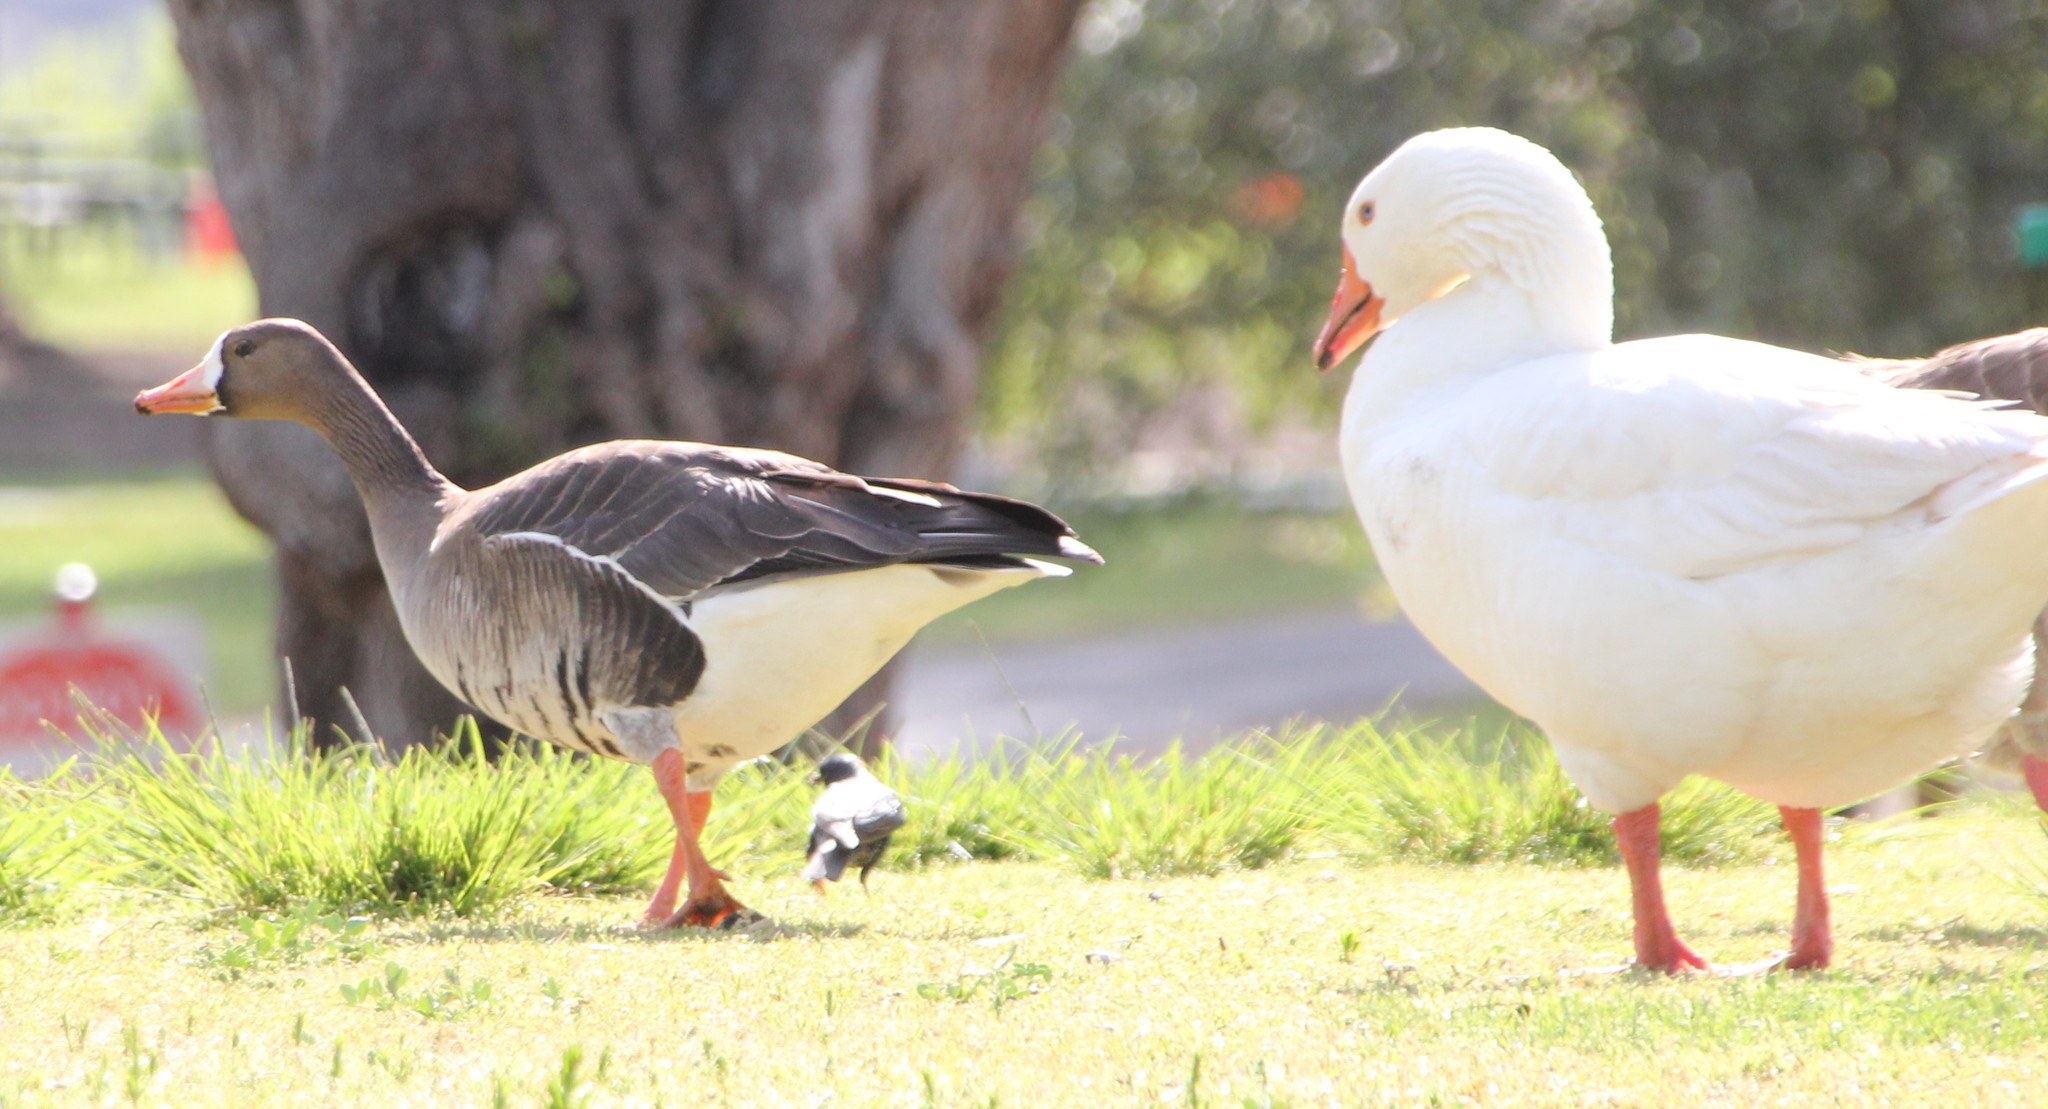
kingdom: Animalia
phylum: Chordata
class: Aves
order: Anseriformes
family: Anatidae
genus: Anser
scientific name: Anser albifrons
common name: Greater white-fronted goose
